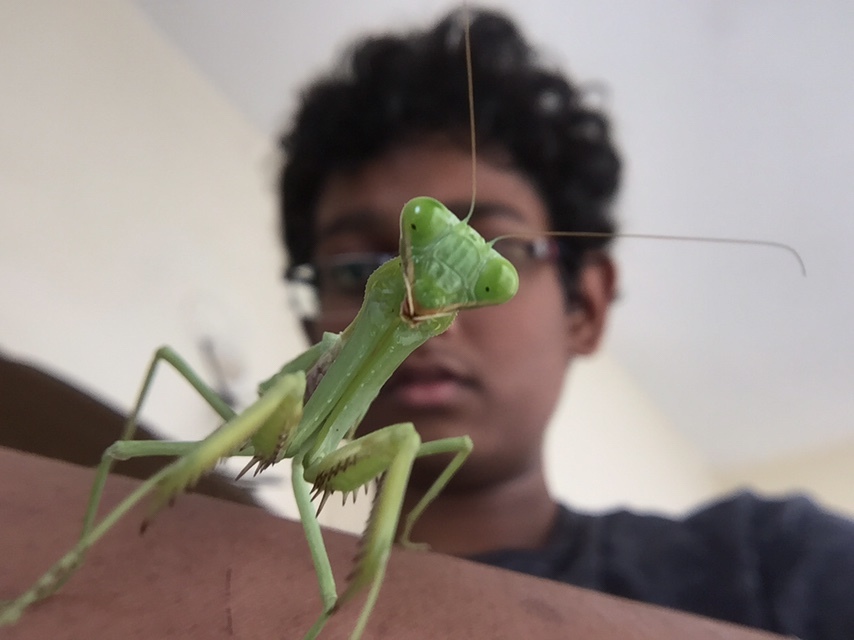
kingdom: Animalia
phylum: Arthropoda
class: Insecta
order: Mantodea
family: Mantidae
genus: Hierodula
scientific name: Hierodula tenuidentata
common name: Giant asian mantis
